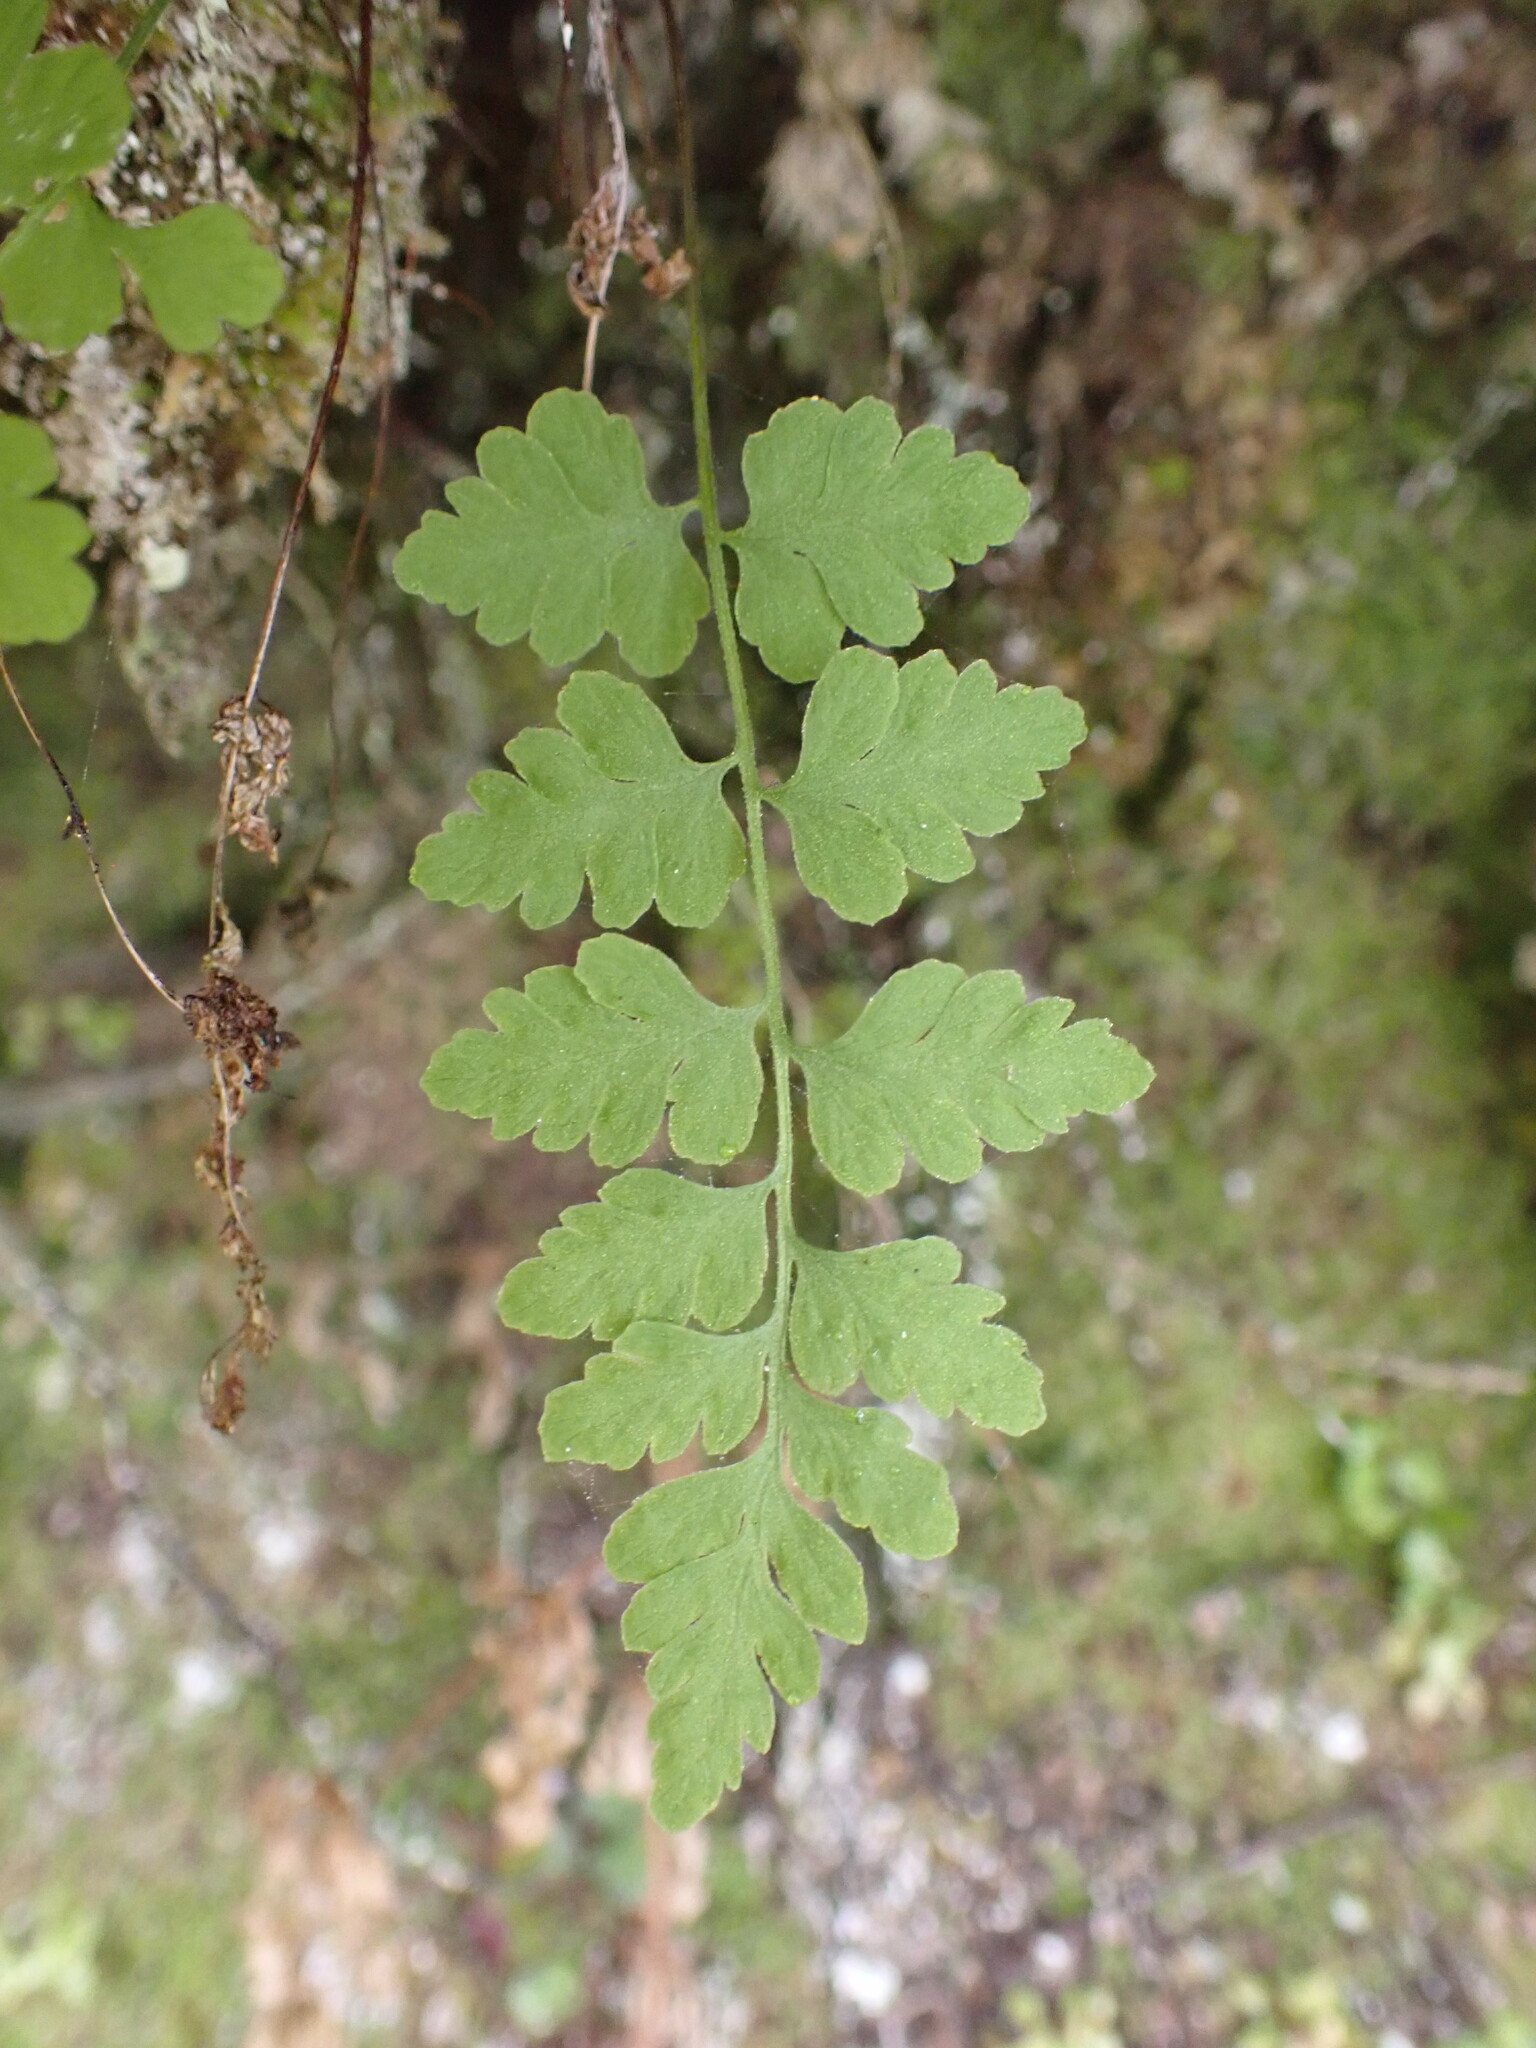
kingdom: Plantae
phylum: Tracheophyta
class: Polypodiopsida
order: Polypodiales
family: Cystopteridaceae
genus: Cystopteris
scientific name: Cystopteris tasmanica
